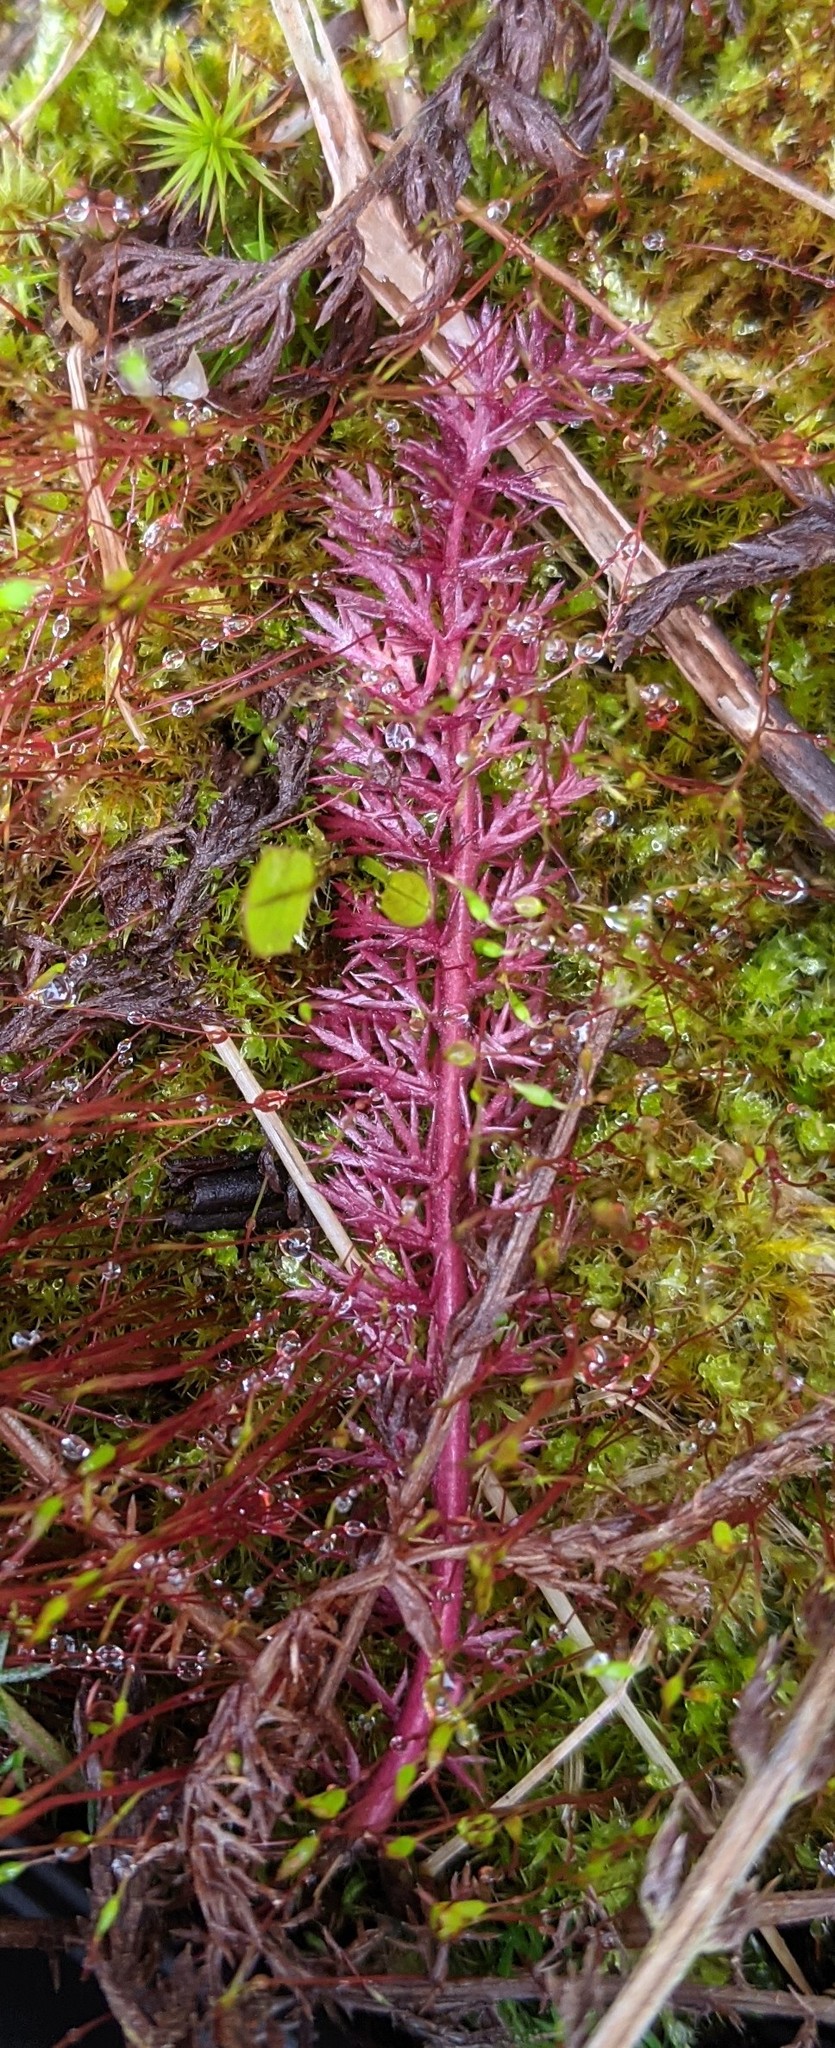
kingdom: Plantae
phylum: Tracheophyta
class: Magnoliopsida
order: Asterales
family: Asteraceae
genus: Achillea
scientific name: Achillea millefolium
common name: Yarrow
